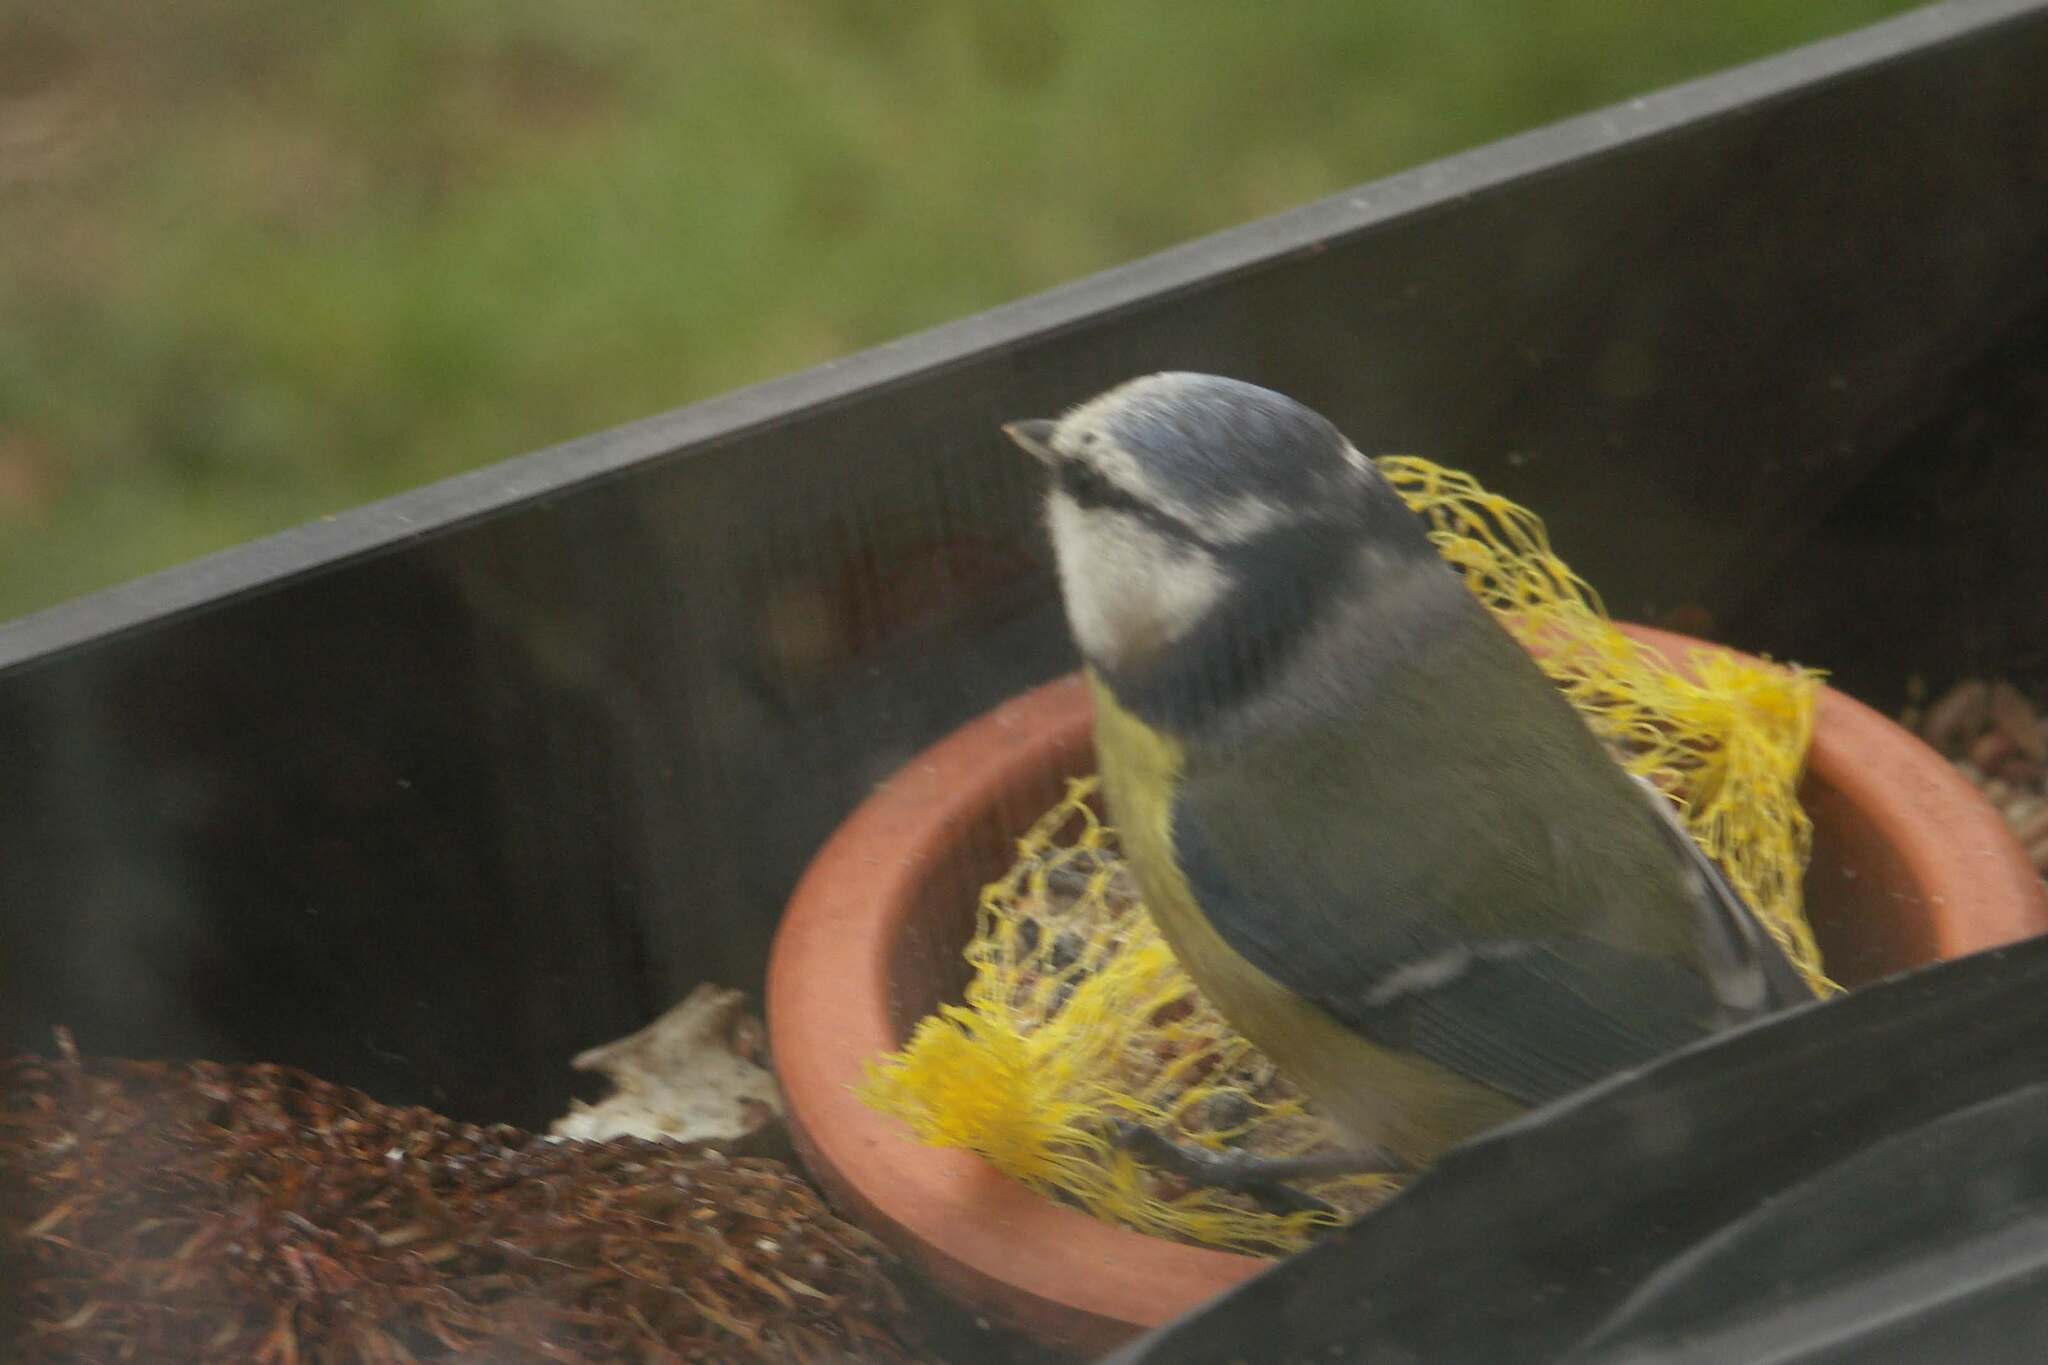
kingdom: Animalia
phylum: Chordata
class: Aves
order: Passeriformes
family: Paridae
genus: Cyanistes
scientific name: Cyanistes caeruleus
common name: Eurasian blue tit
